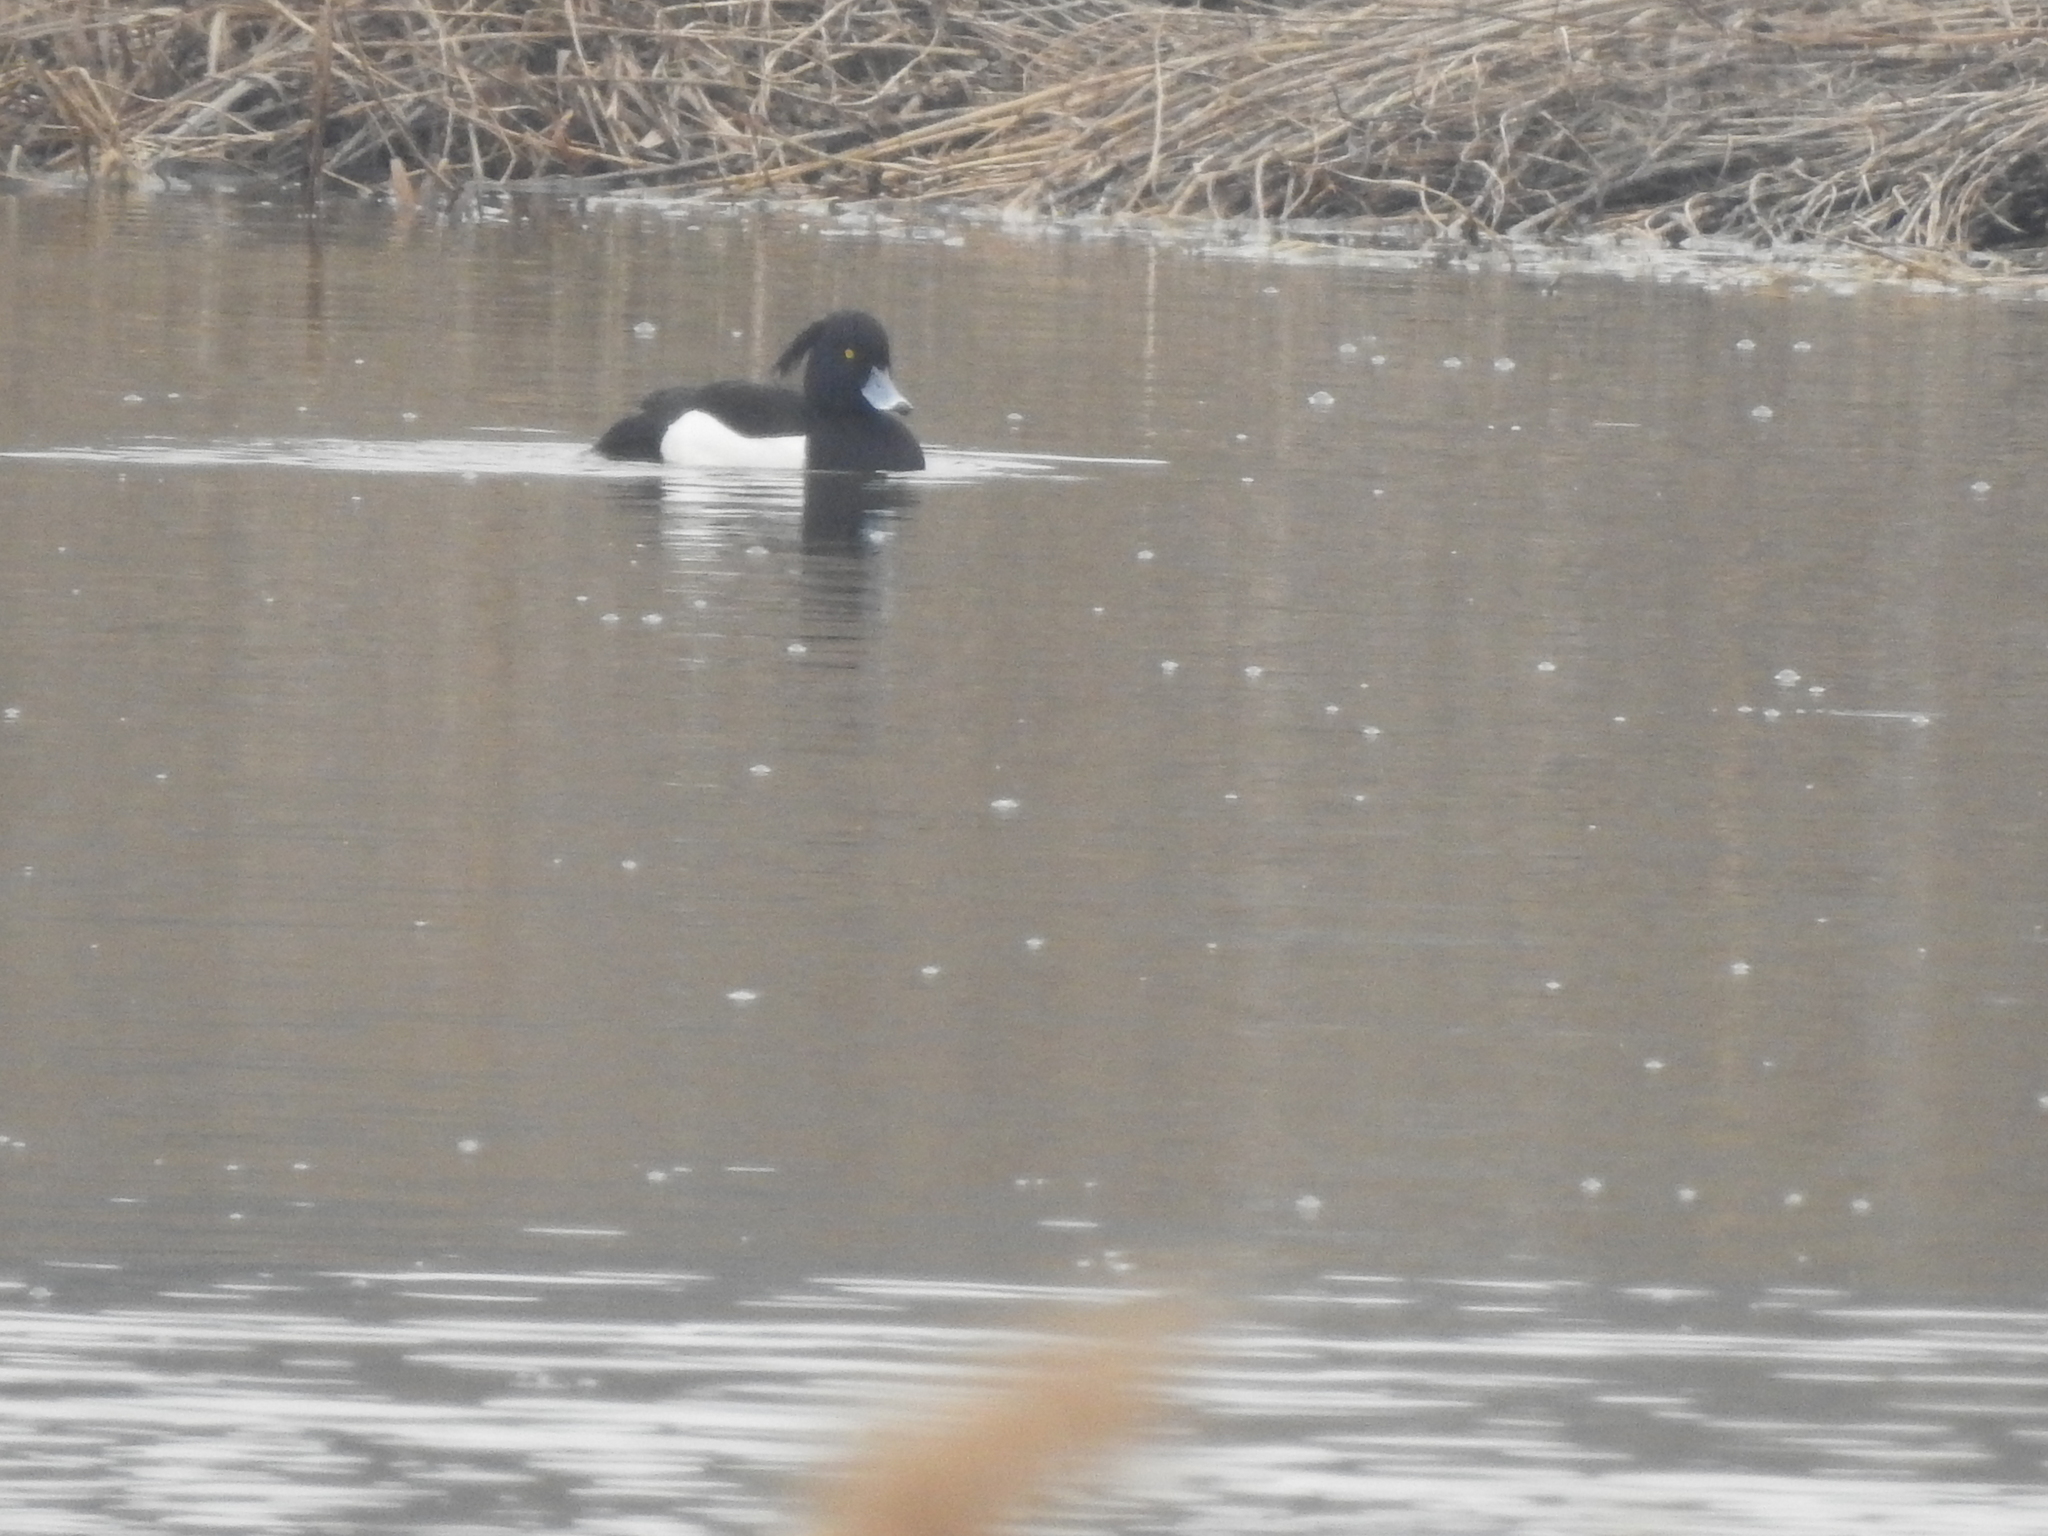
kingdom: Animalia
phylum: Chordata
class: Aves
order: Anseriformes
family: Anatidae
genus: Aythya
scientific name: Aythya fuligula
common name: Tufted duck
